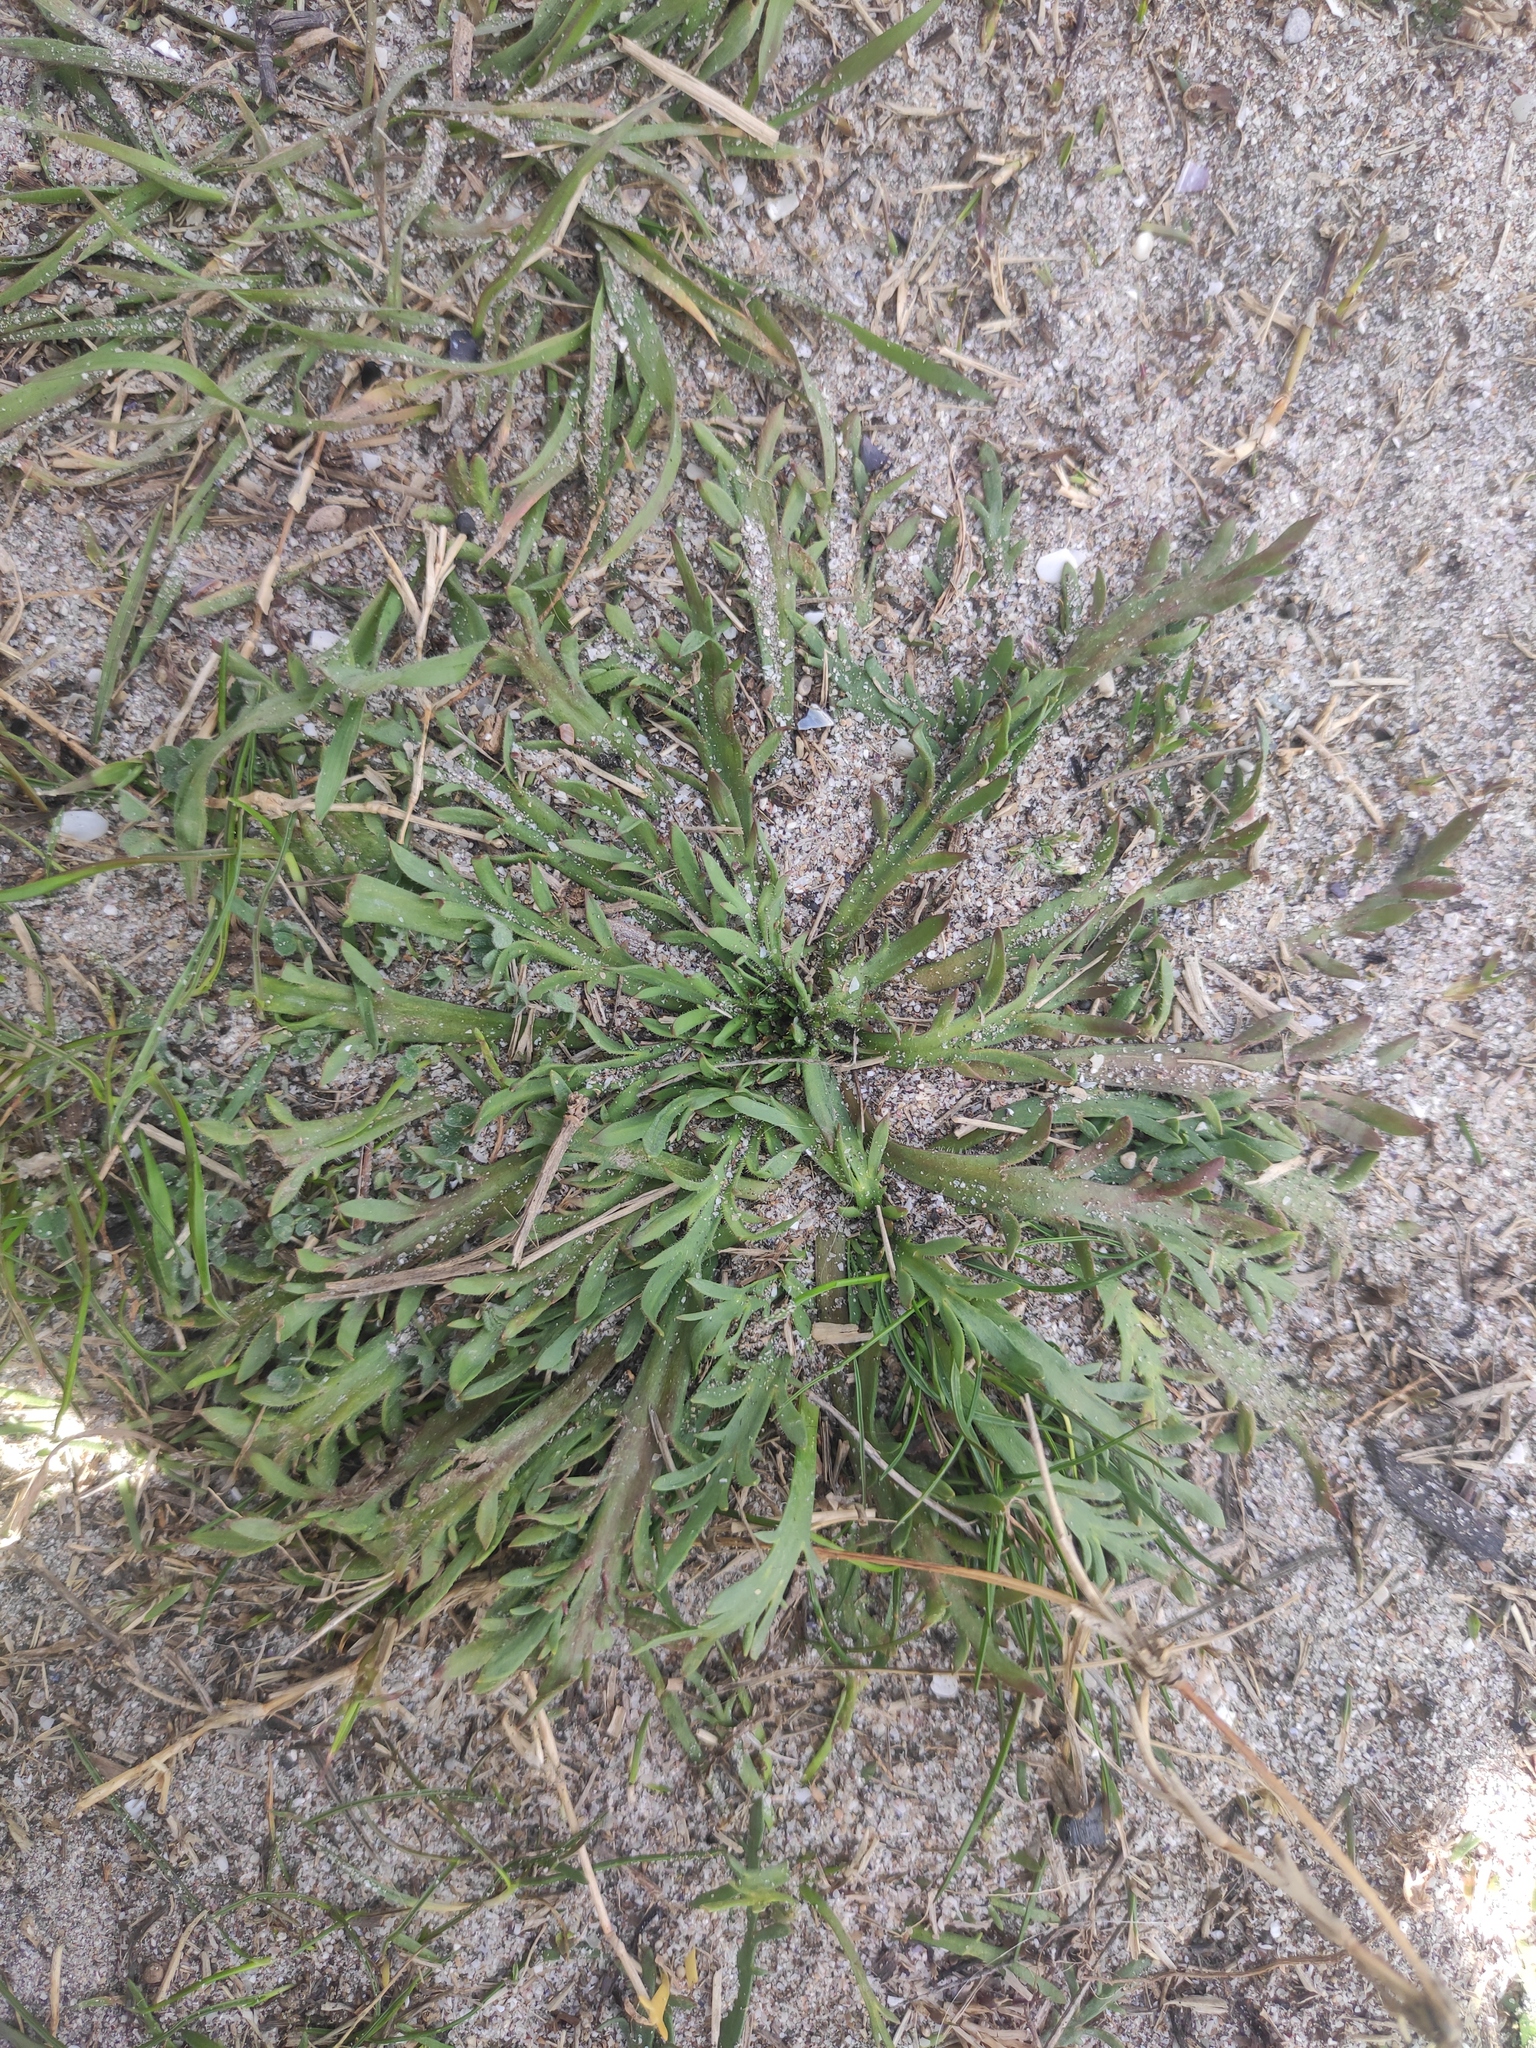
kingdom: Plantae
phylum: Tracheophyta
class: Magnoliopsida
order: Lamiales
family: Plantaginaceae
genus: Plantago
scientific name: Plantago coronopus
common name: Buck's-horn plantain
